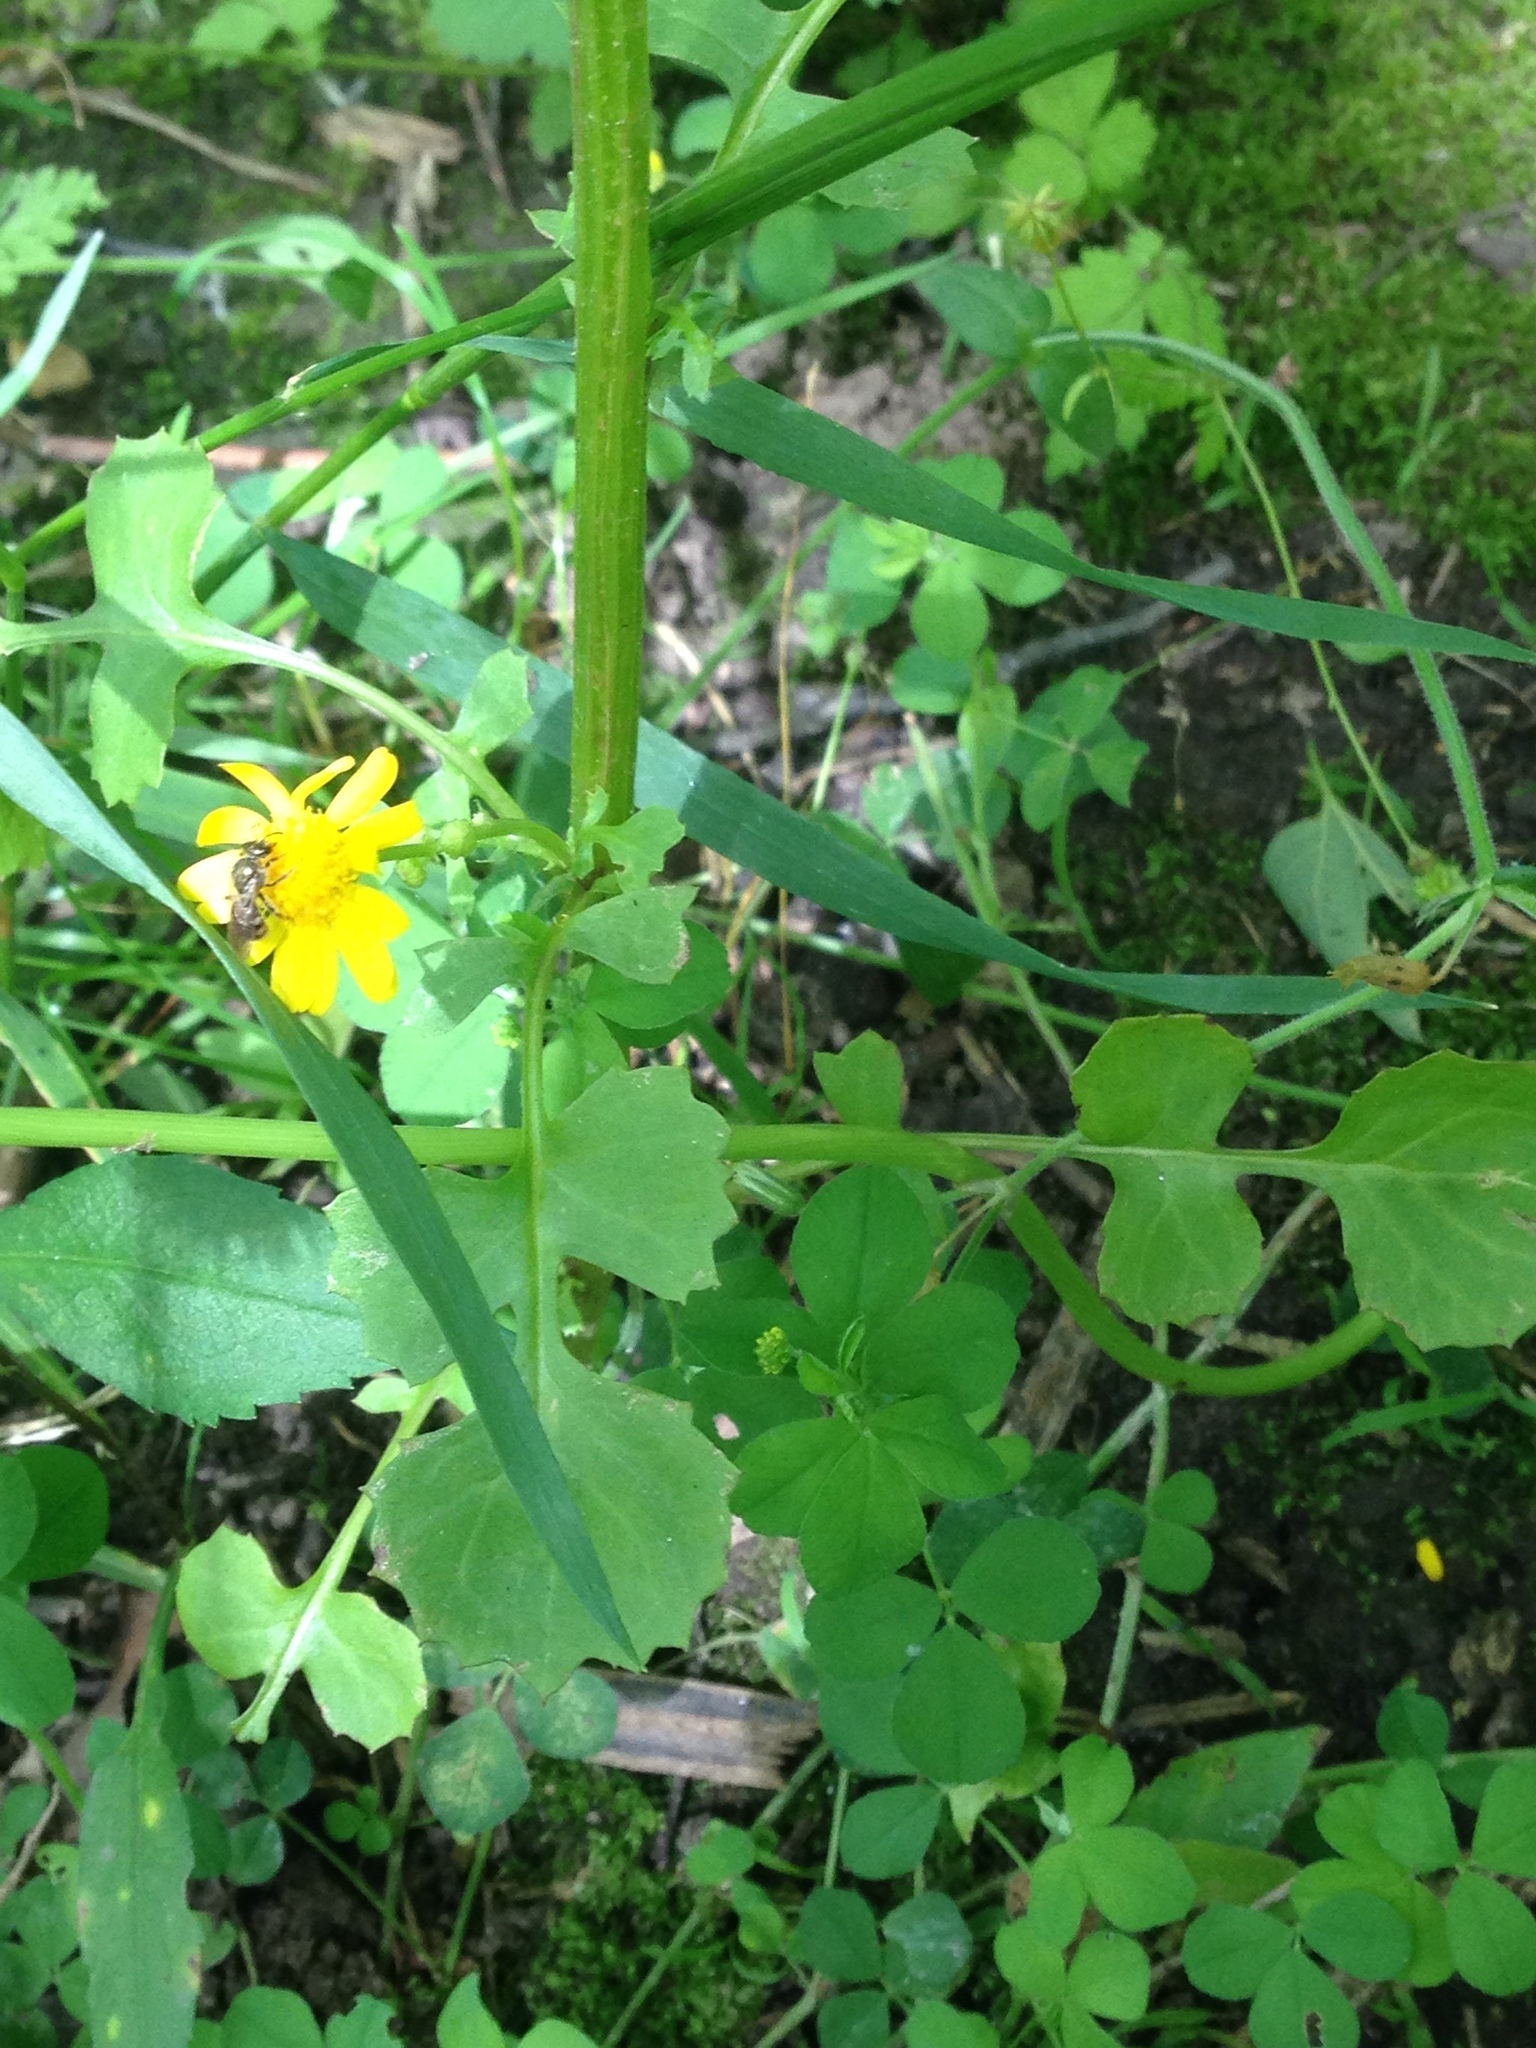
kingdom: Plantae
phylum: Tracheophyta
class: Magnoliopsida
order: Asterales
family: Asteraceae
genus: Packera
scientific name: Packera glabella
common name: Butterweed
